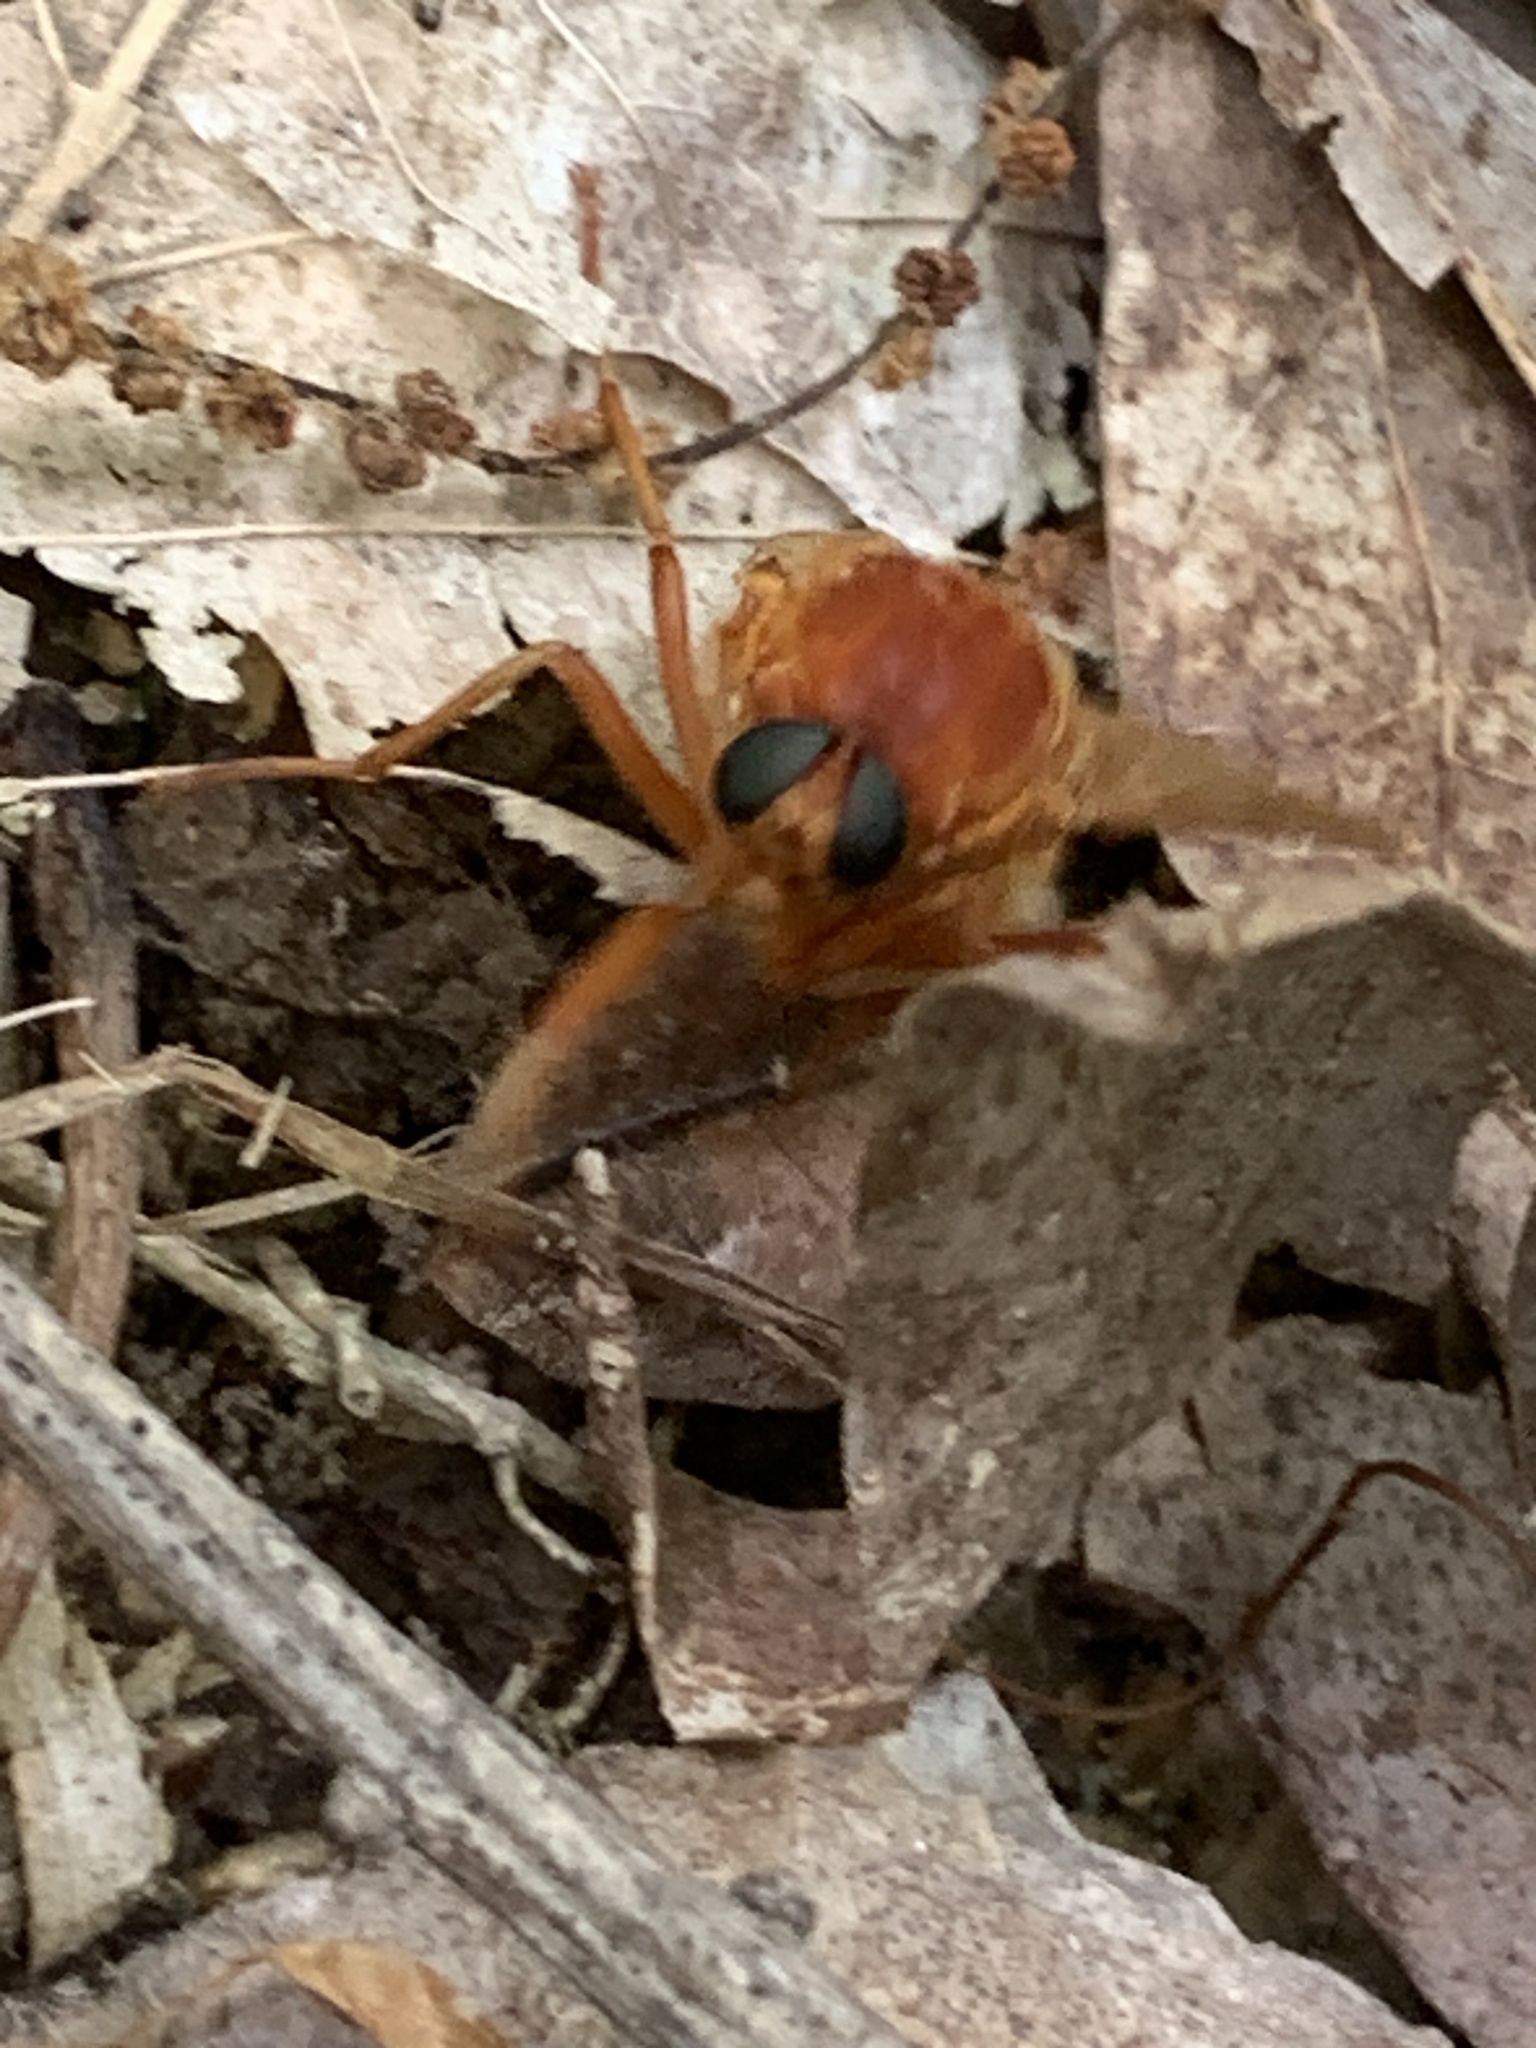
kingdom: Animalia
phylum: Arthropoda
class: Insecta
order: Diptera
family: Xylophagidae
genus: Coenomyia
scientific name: Coenomyia ferruginea
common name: Stink fly
